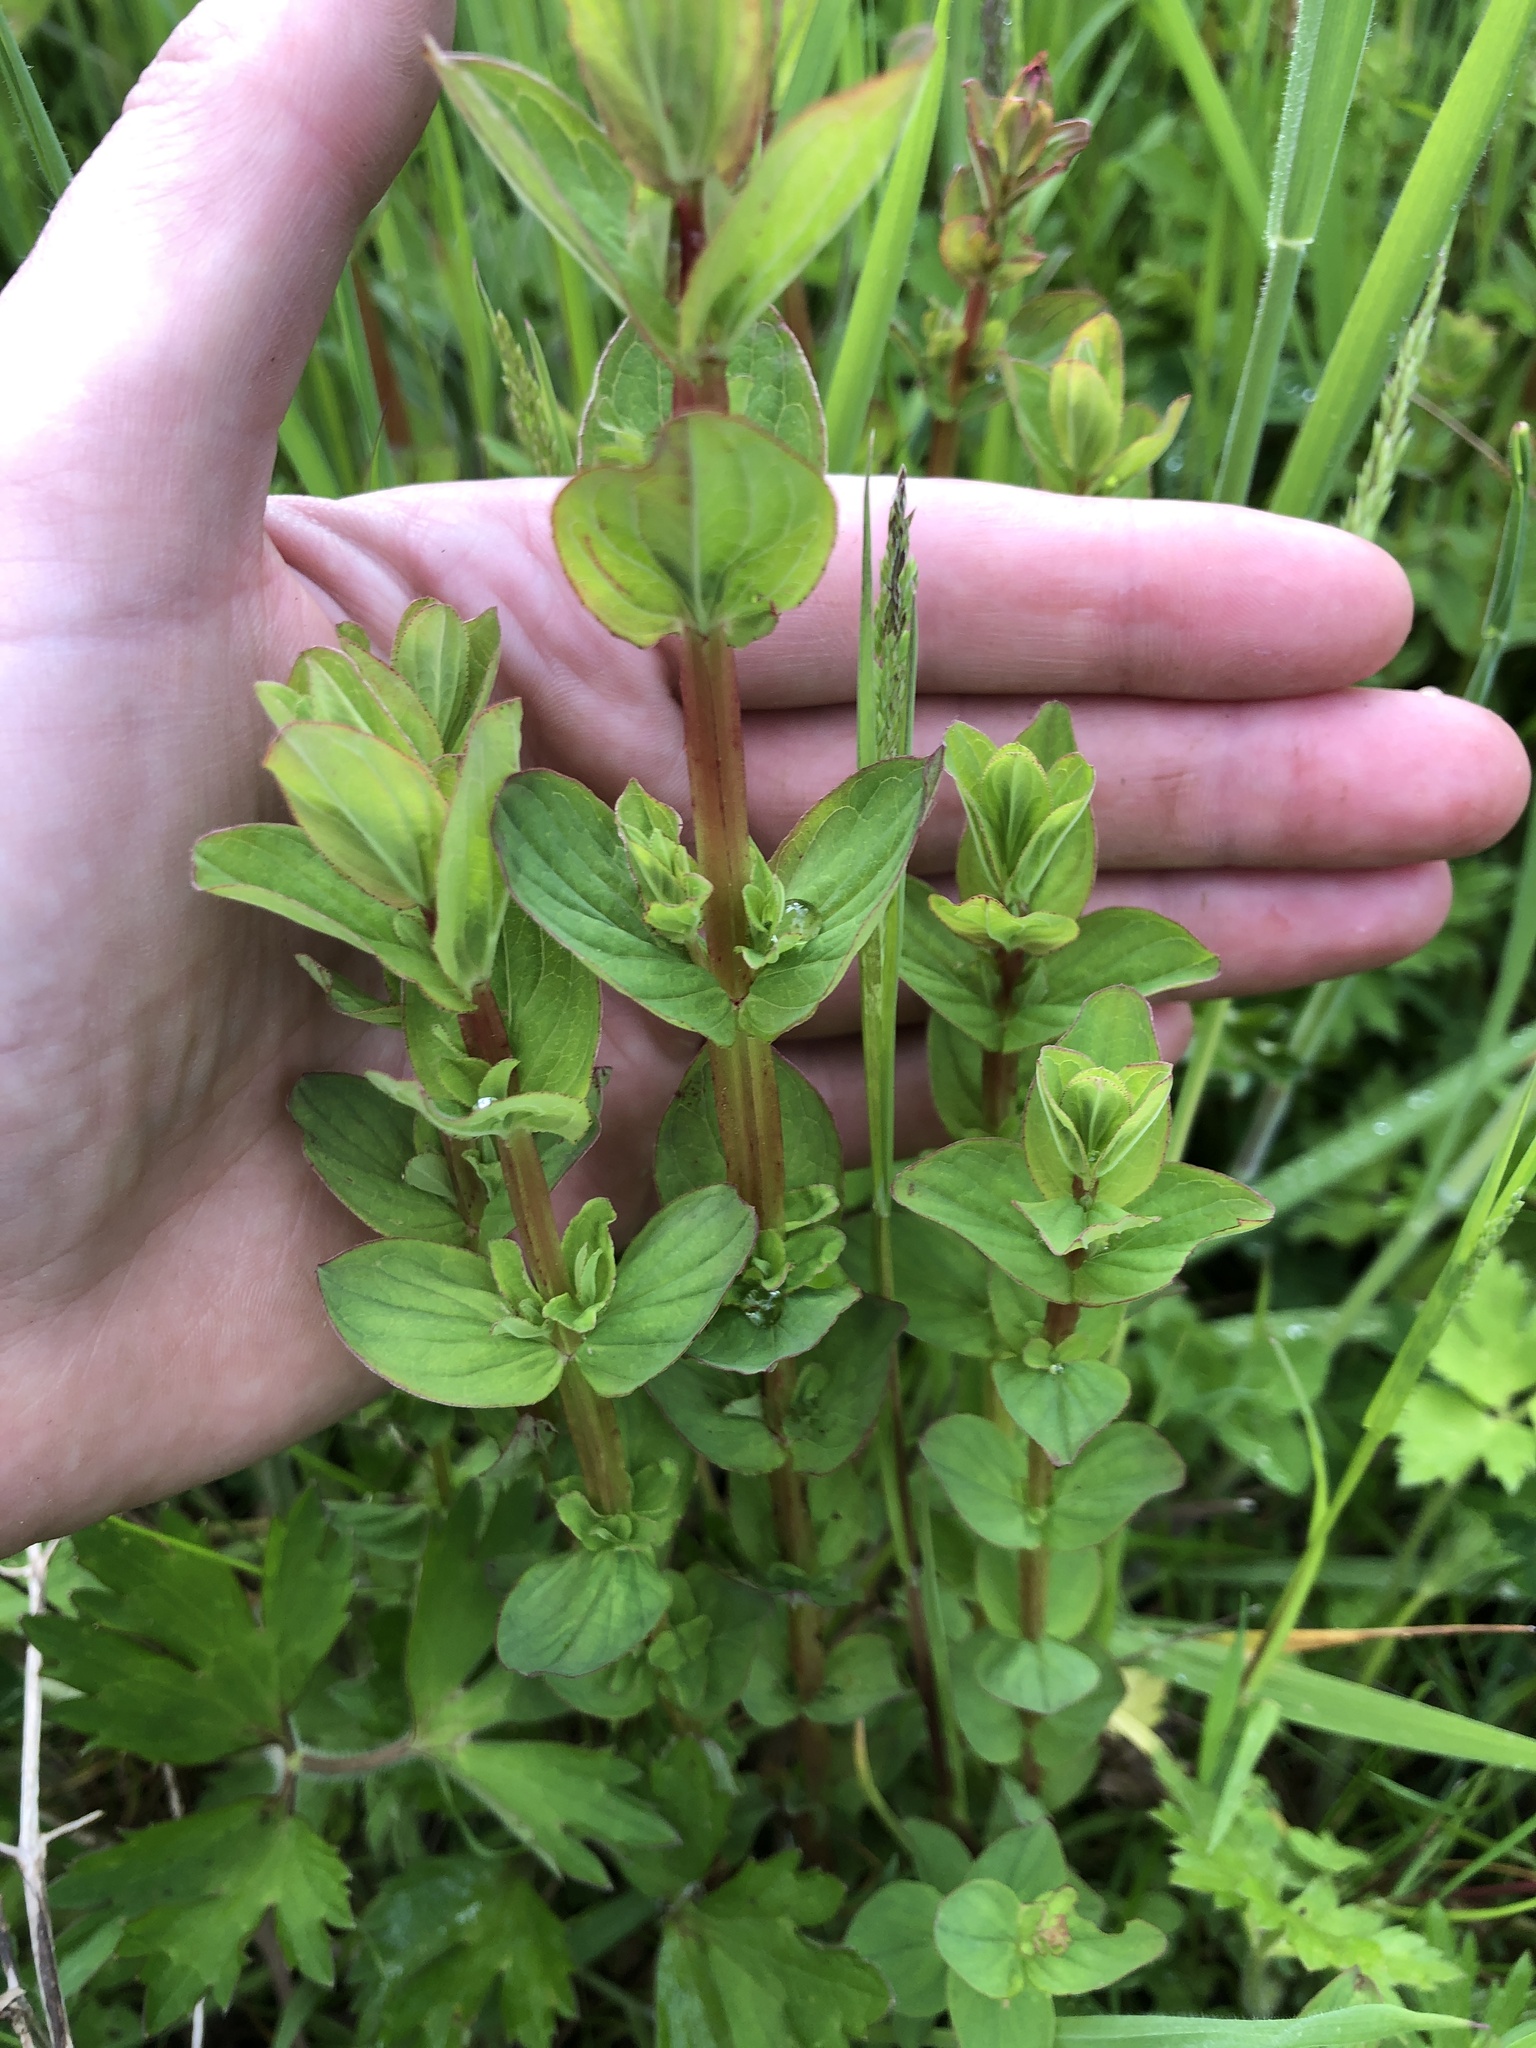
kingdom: Plantae
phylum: Tracheophyta
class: Magnoliopsida
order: Malpighiales
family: Hypericaceae
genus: Hypericum
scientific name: Hypericum tetrapterum
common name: Square-stalked st. john's-wort
